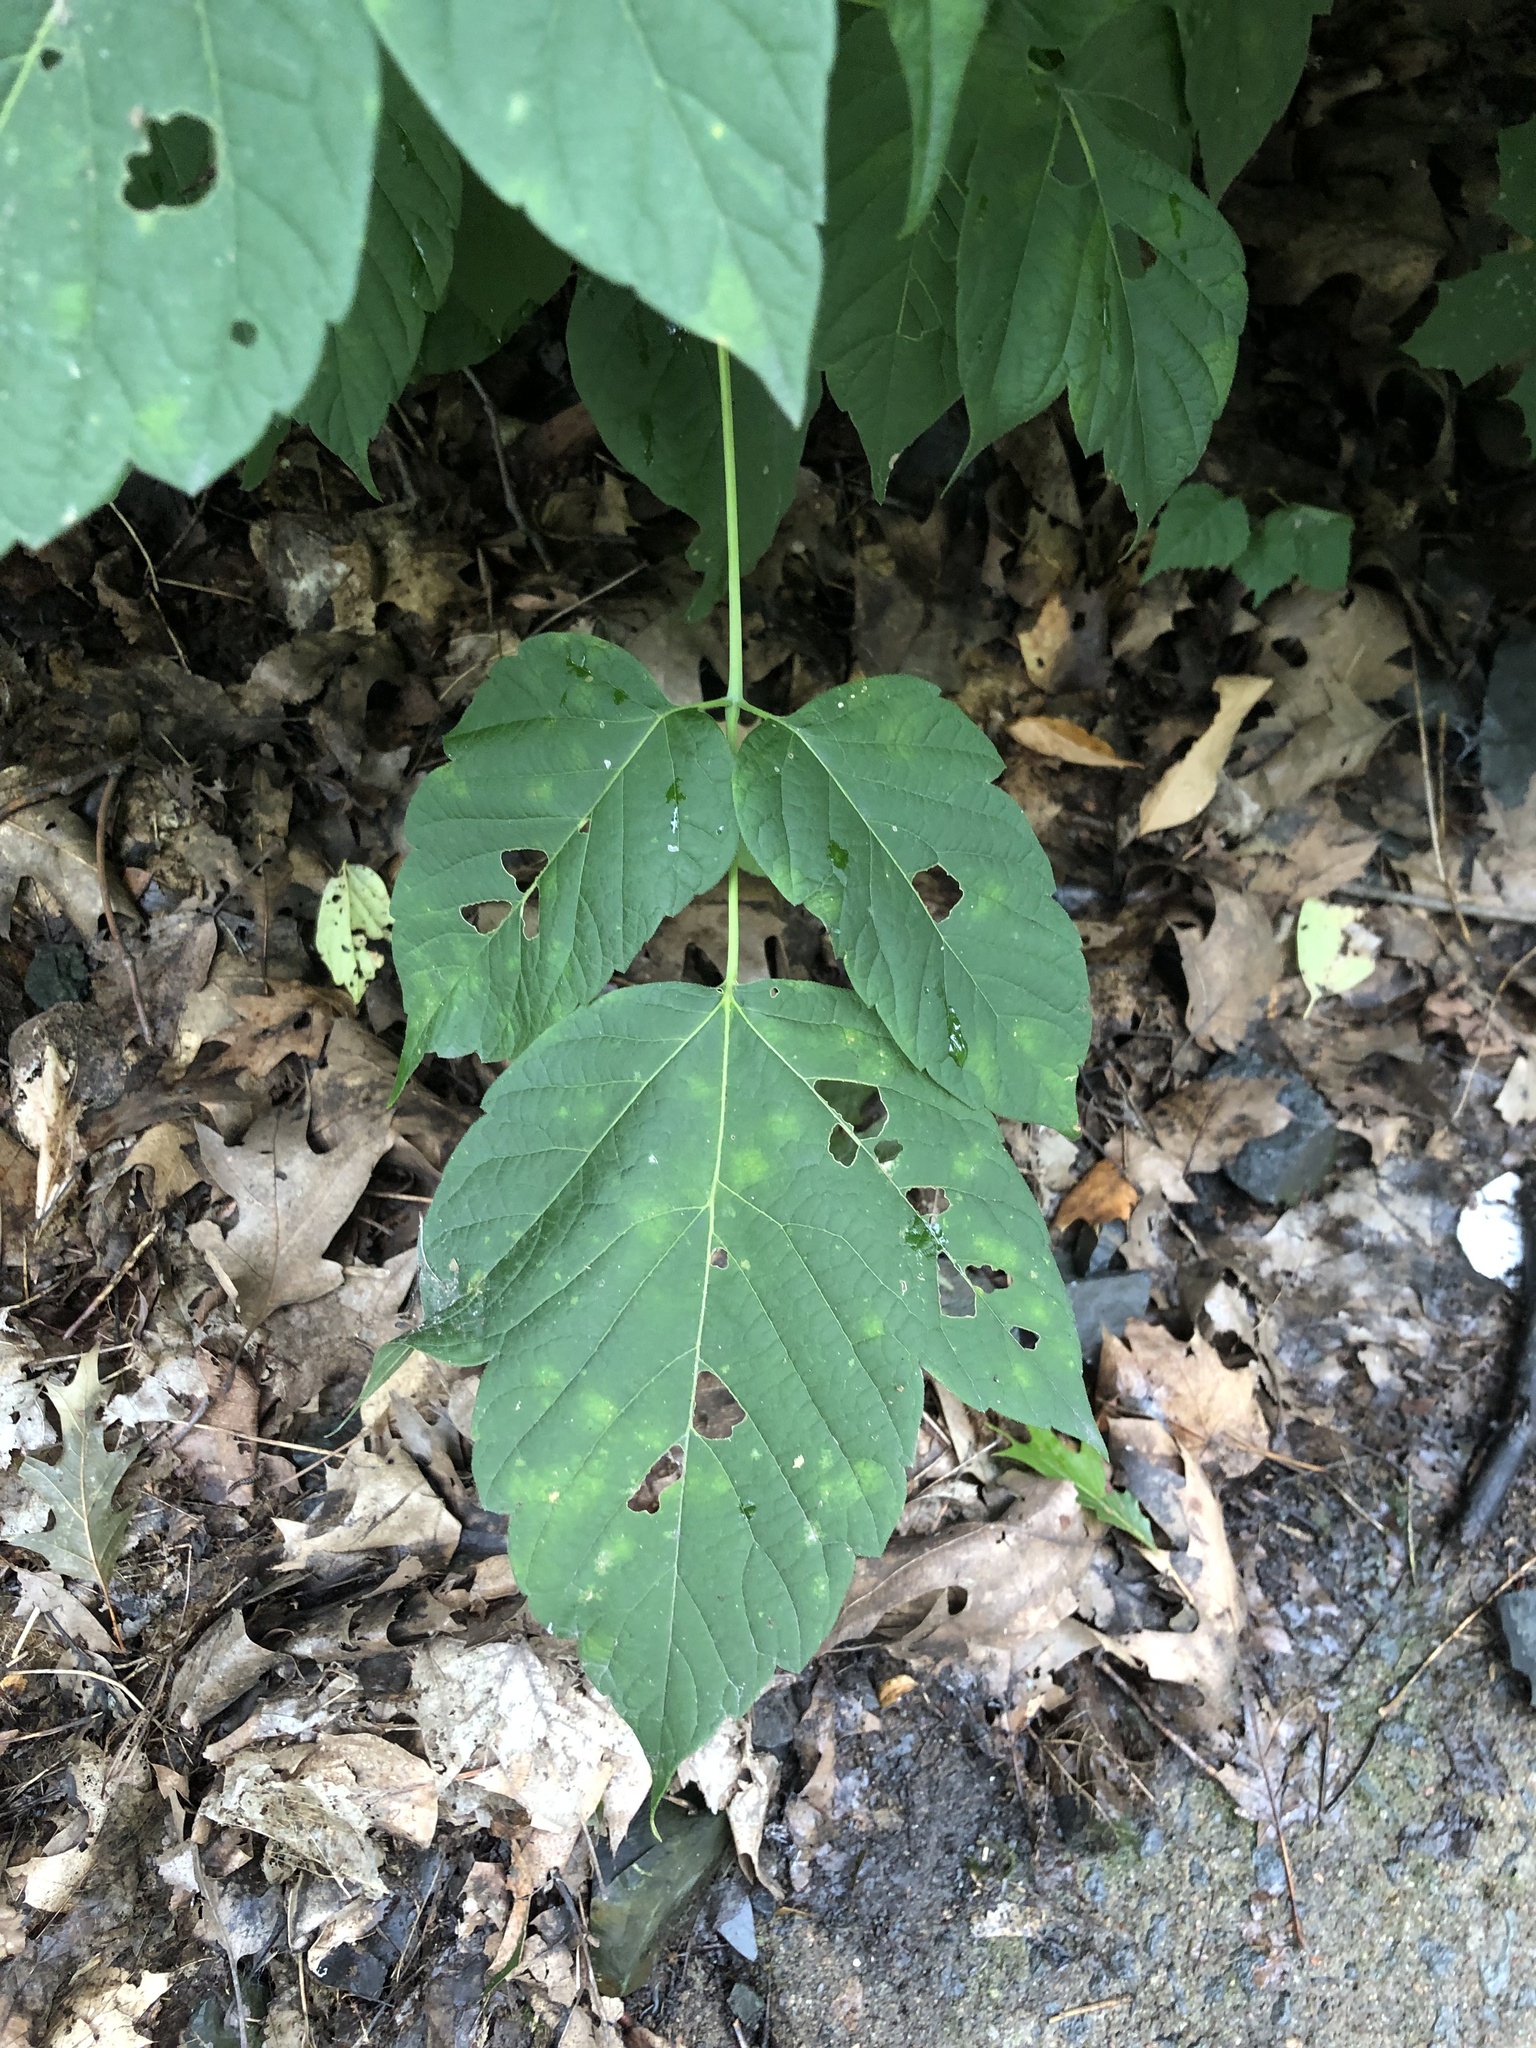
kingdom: Plantae
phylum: Tracheophyta
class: Magnoliopsida
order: Sapindales
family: Sapindaceae
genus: Acer
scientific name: Acer negundo
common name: Ashleaf maple
